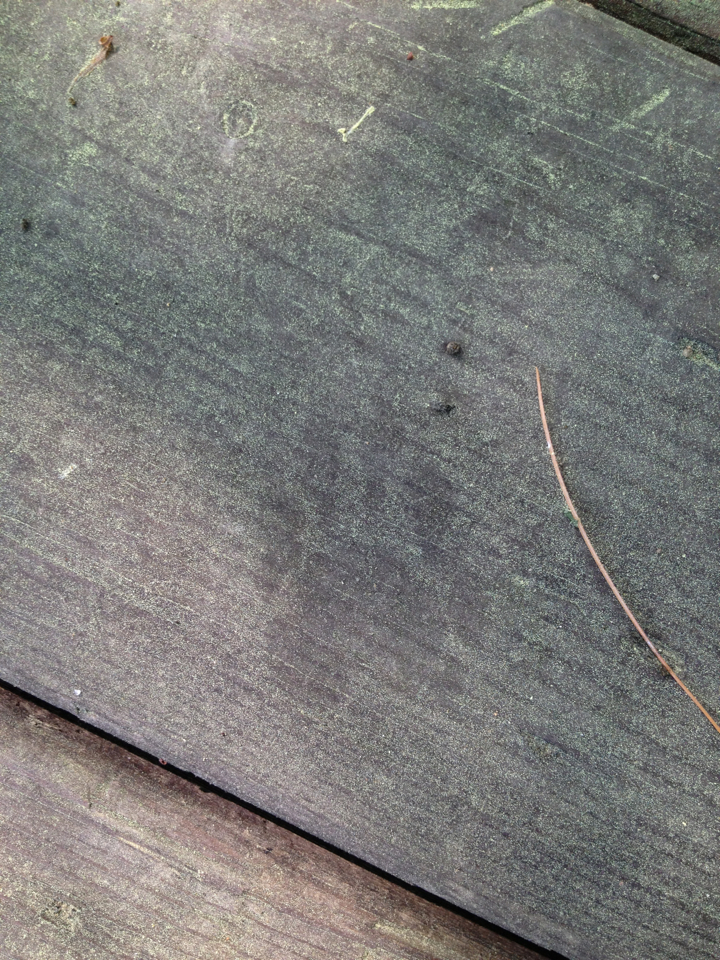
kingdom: Animalia
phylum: Chordata
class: Mammalia
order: Carnivora
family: Procyonidae
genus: Procyon
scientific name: Procyon lotor
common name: Raccoon
